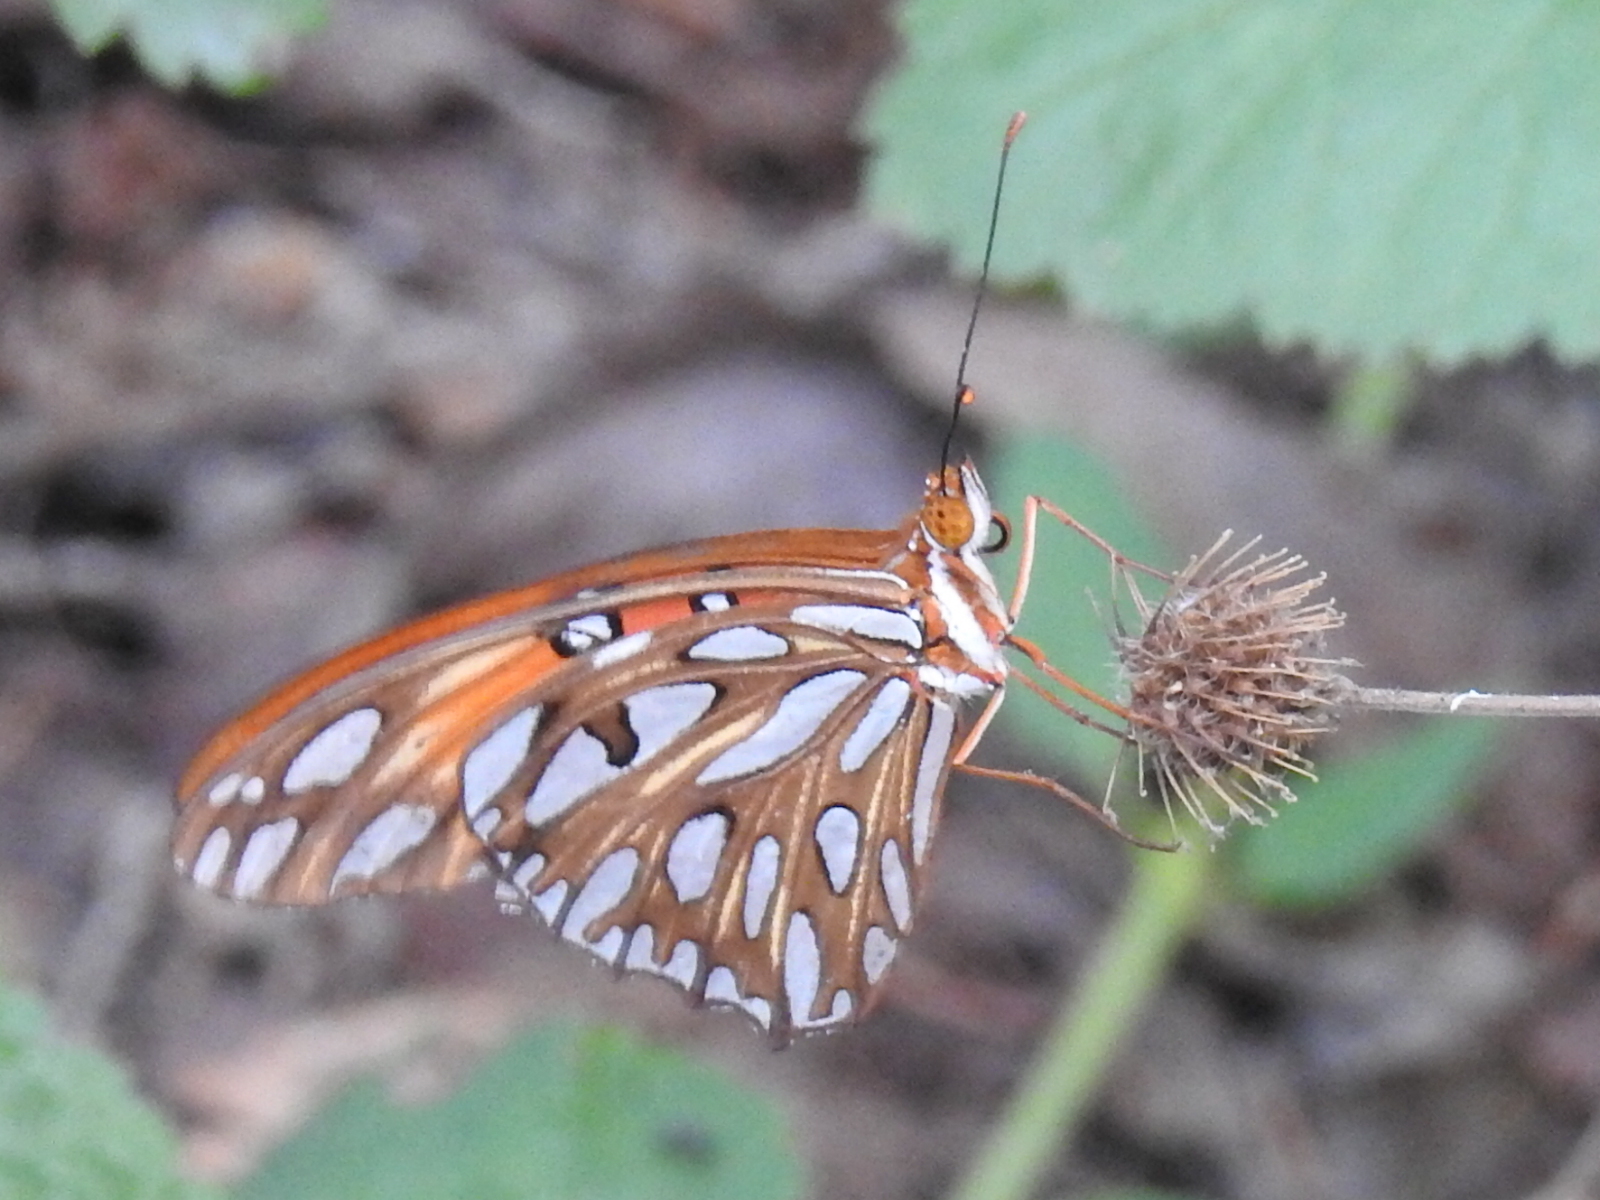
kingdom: Animalia
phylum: Arthropoda
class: Insecta
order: Lepidoptera
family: Nymphalidae
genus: Dione
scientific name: Dione vanillae
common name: Gulf fritillary
